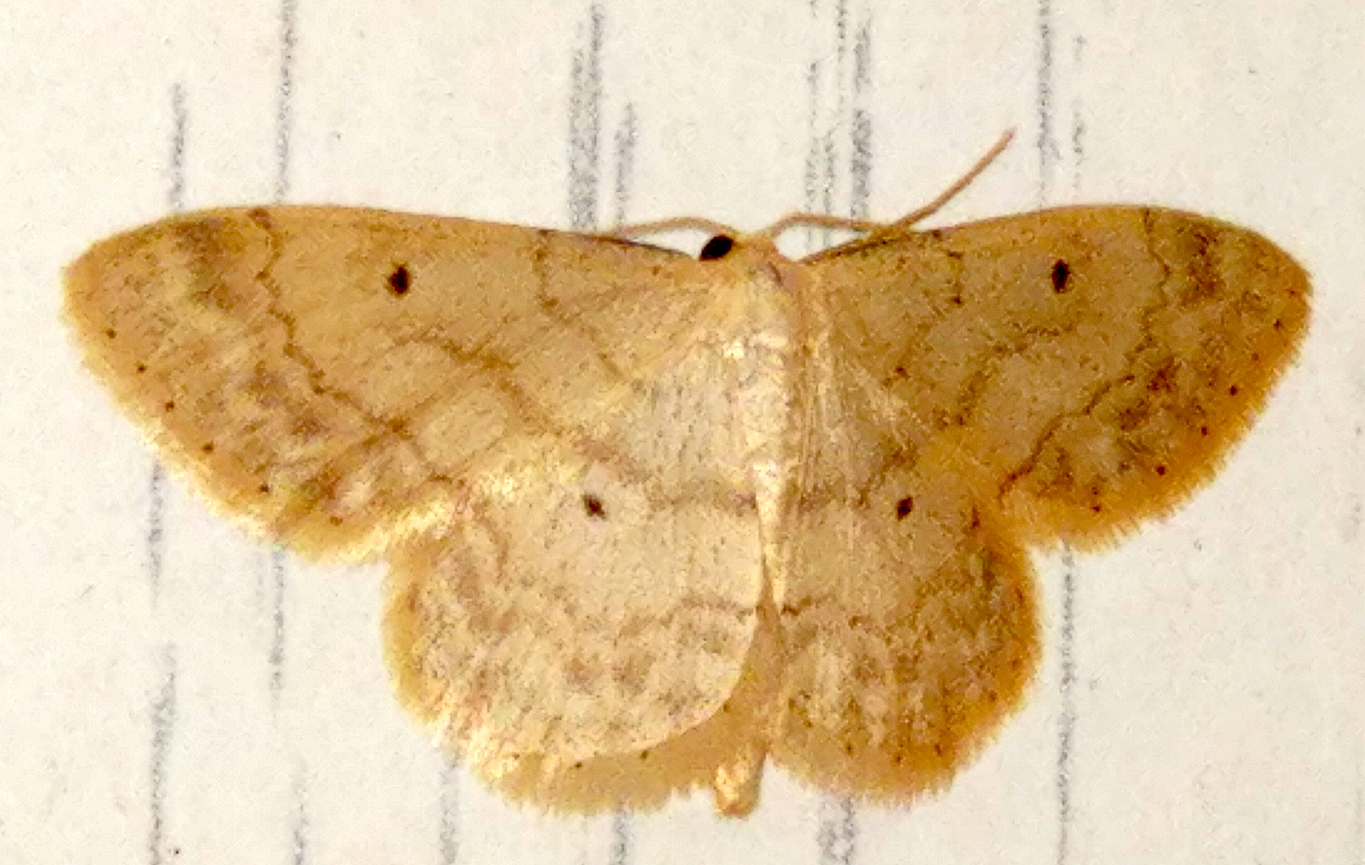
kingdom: Animalia
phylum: Arthropoda
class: Insecta
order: Lepidoptera
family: Geometridae
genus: Idaea
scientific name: Idaea biselata
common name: Small fan-footed wave
